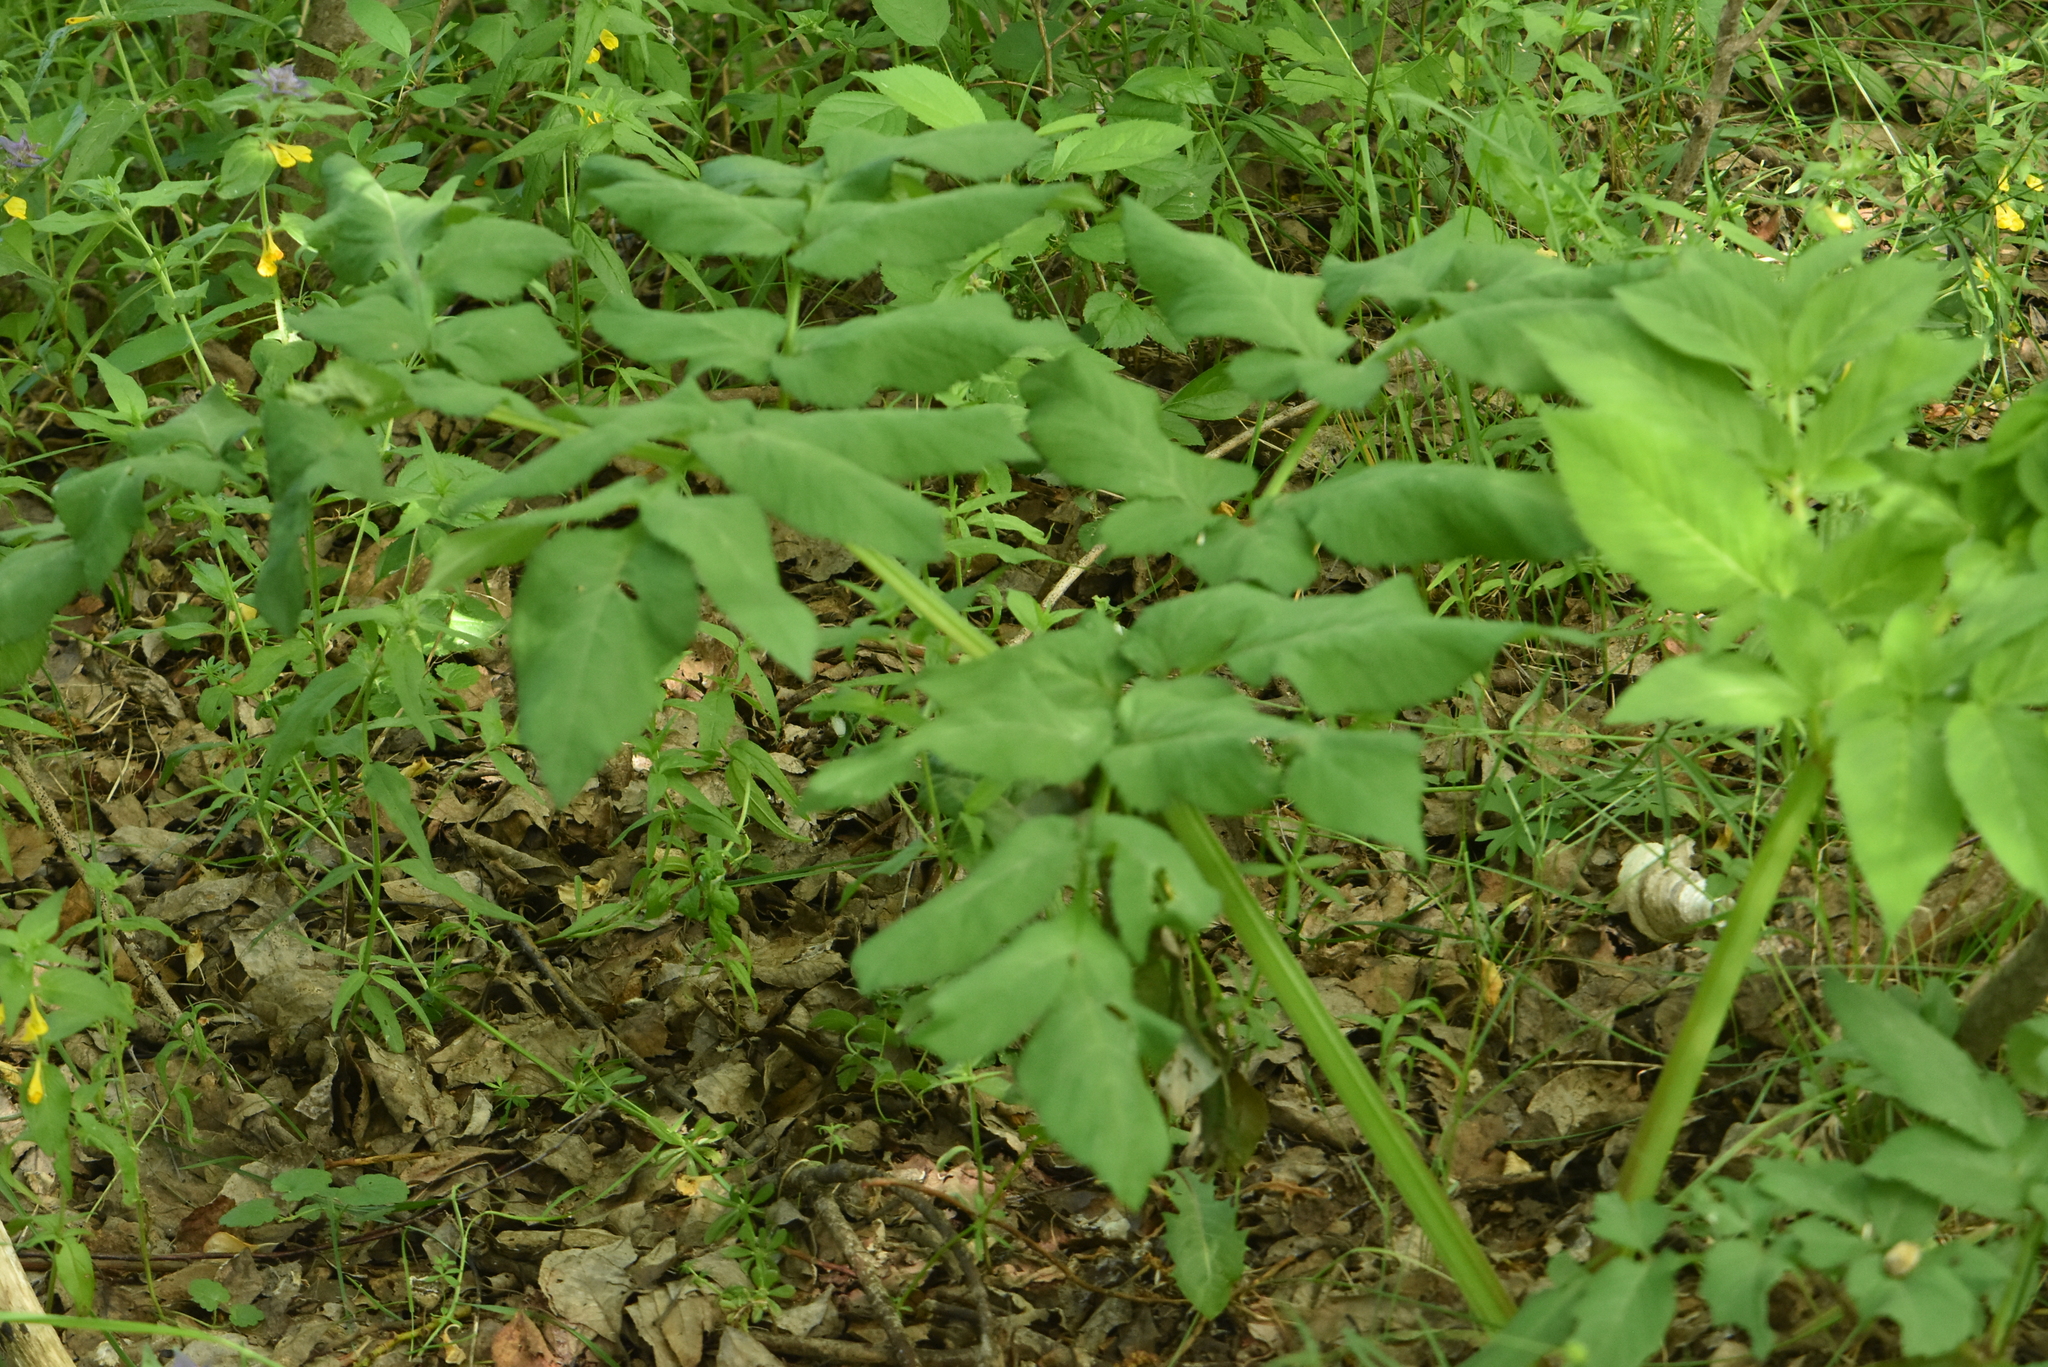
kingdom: Plantae
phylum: Tracheophyta
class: Magnoliopsida
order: Apiales
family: Apiaceae
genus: Angelica
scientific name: Angelica sylvestris
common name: Wild angelica
